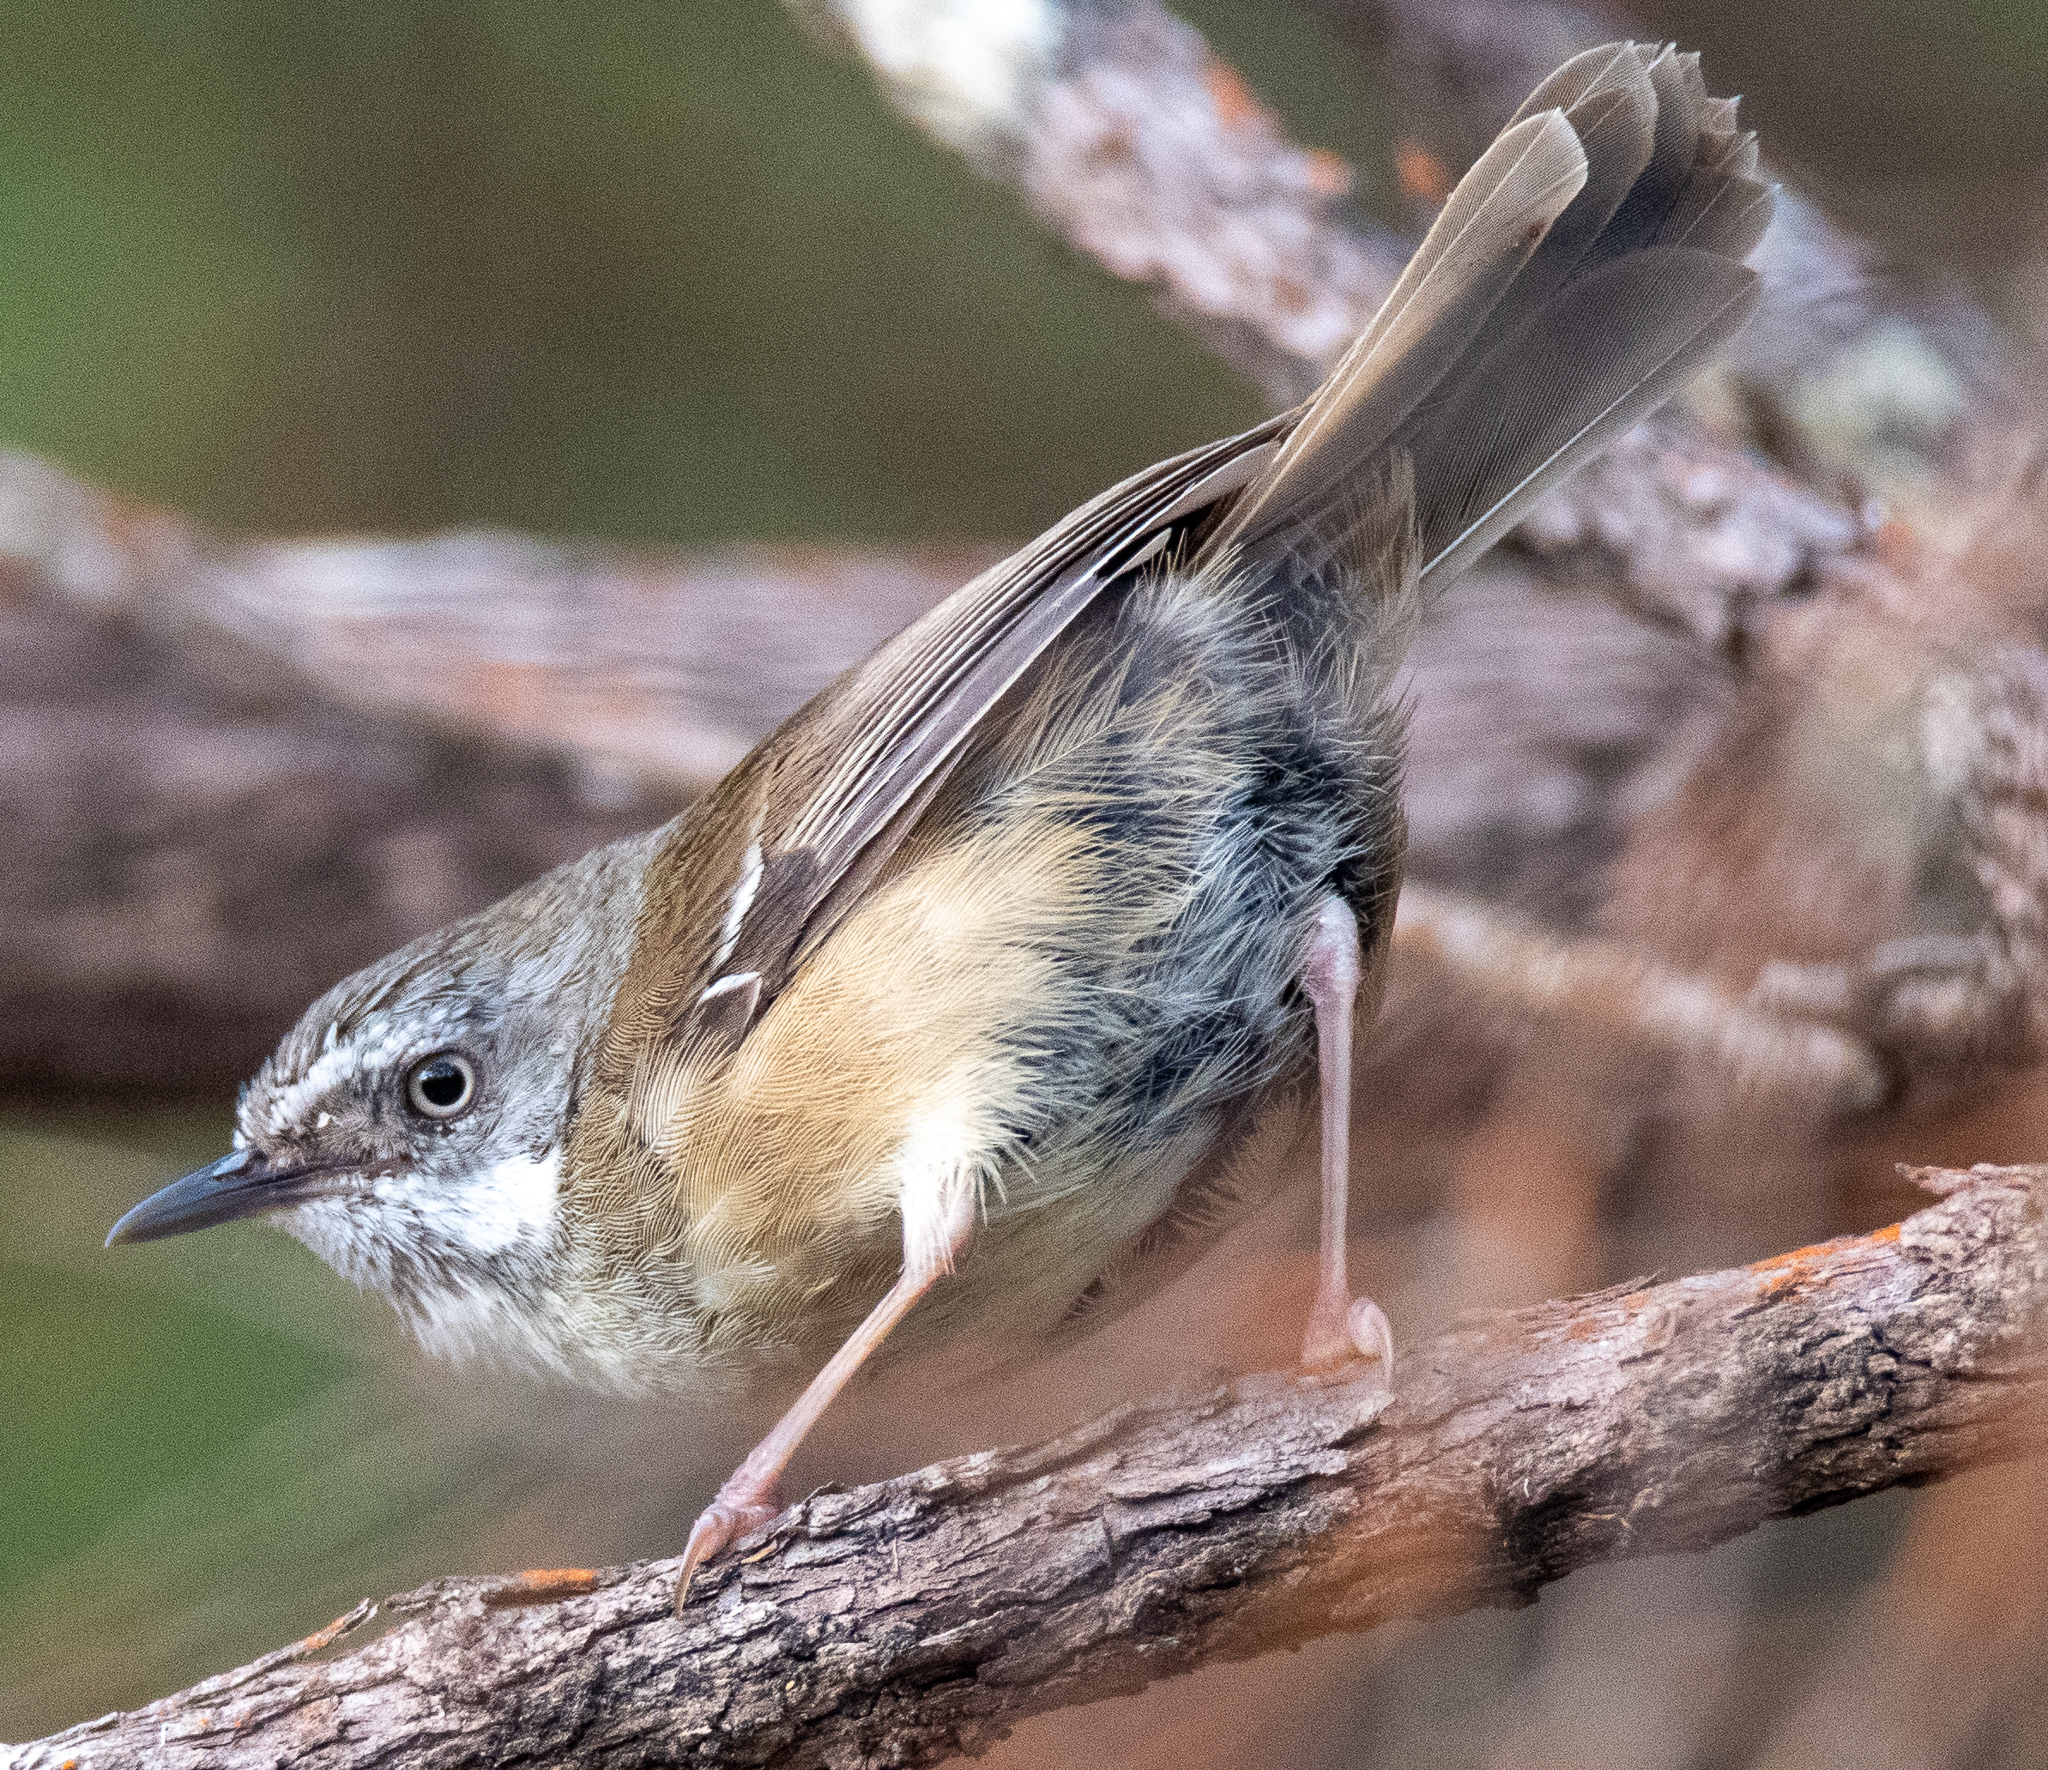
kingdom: Animalia
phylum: Chordata
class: Aves
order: Passeriformes
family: Acanthizidae
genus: Sericornis
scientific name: Sericornis frontalis
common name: White-browed scrubwren
